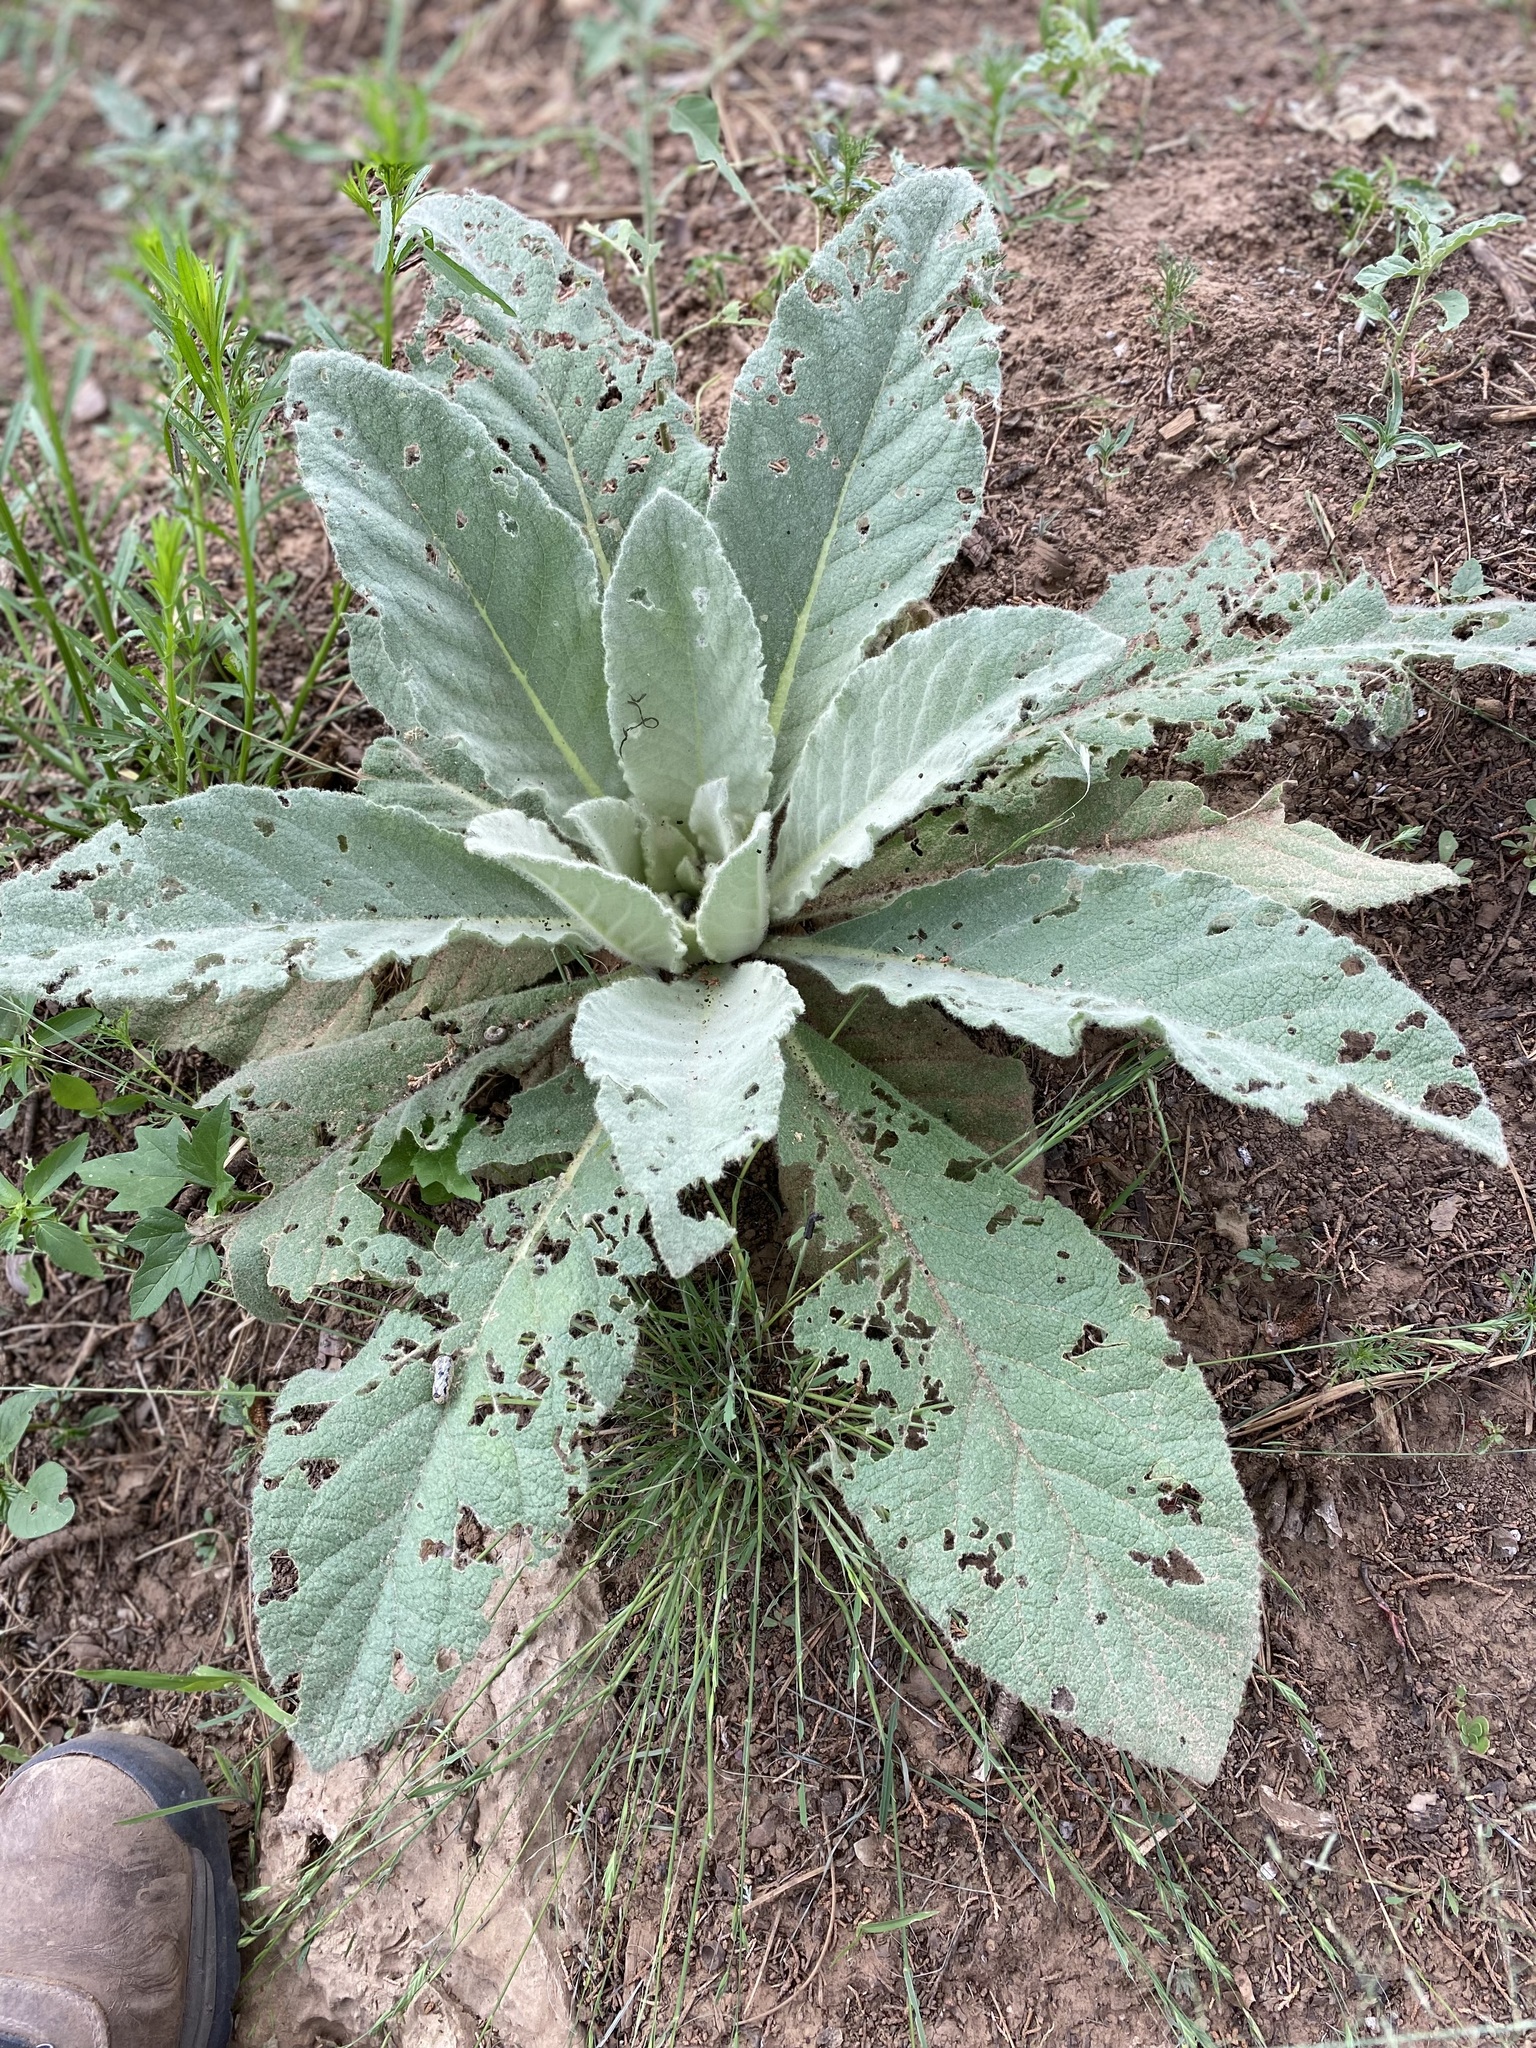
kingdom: Plantae
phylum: Tracheophyta
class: Magnoliopsida
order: Lamiales
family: Scrophulariaceae
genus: Verbascum
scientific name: Verbascum thapsus
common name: Common mullein
